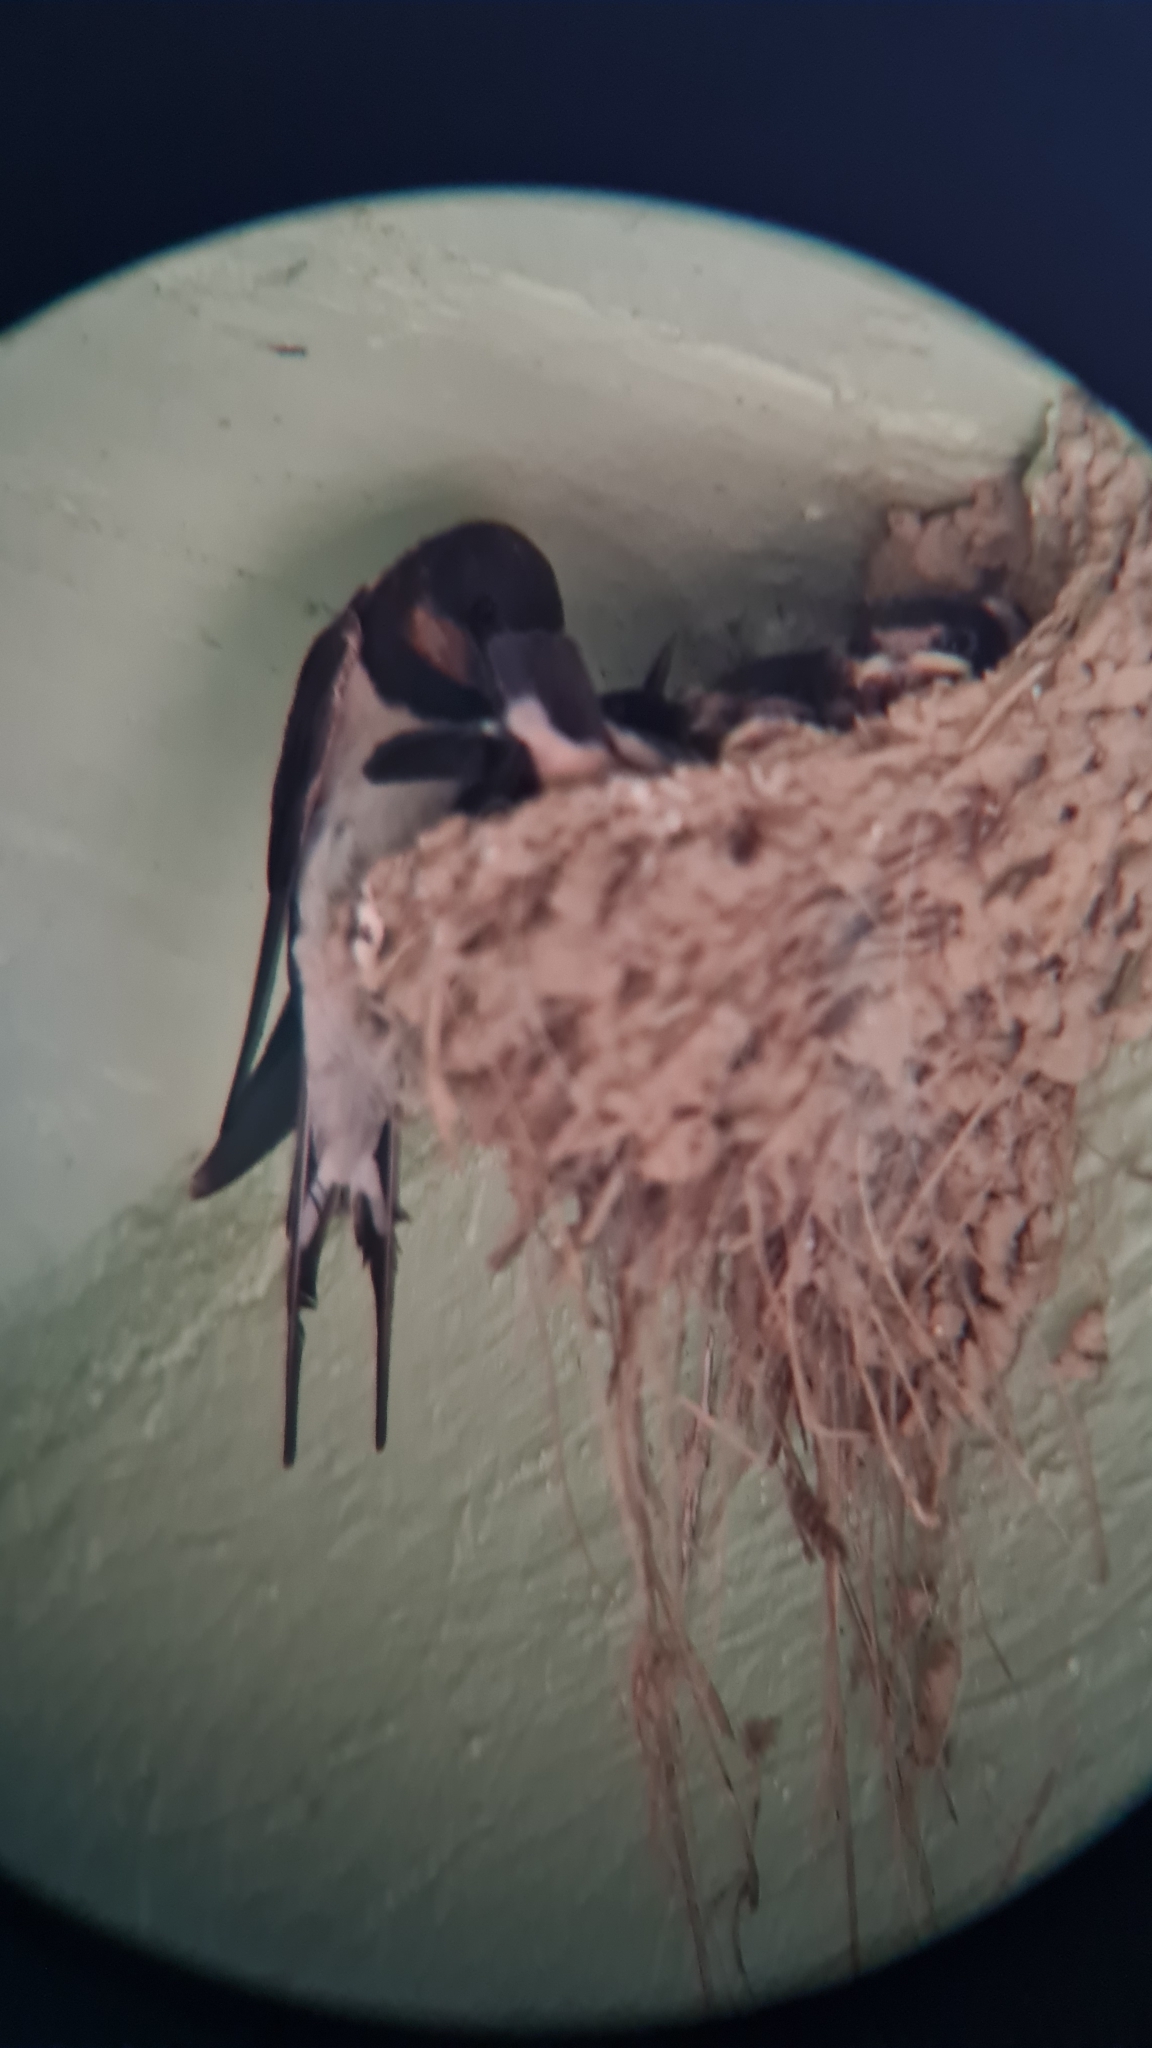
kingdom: Animalia
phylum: Chordata
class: Aves
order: Passeriformes
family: Hirundinidae
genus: Hirundo
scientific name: Hirundo rustica
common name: Barn swallow
